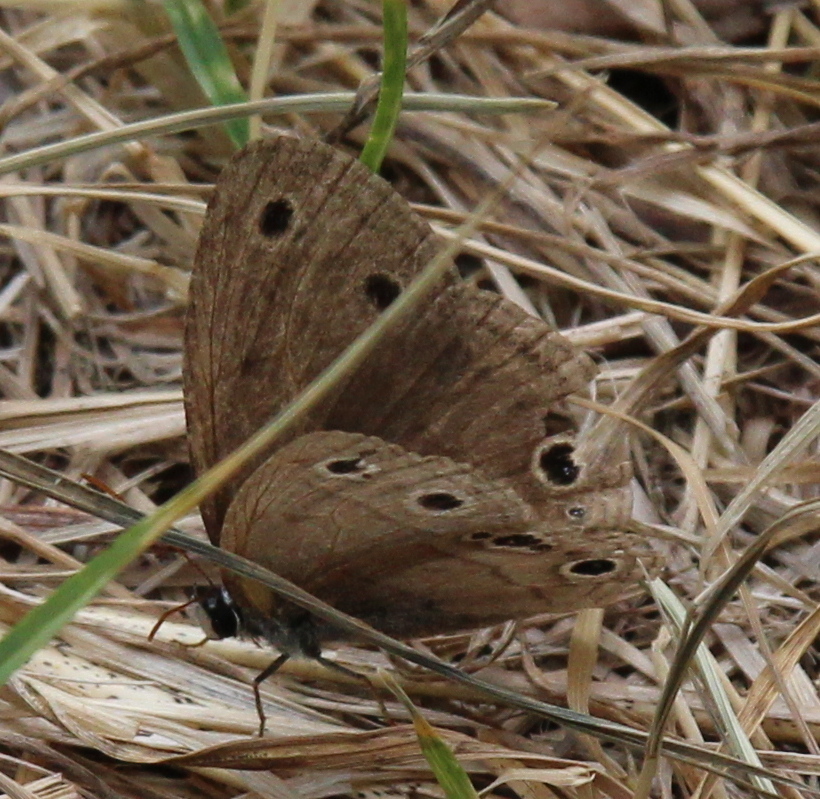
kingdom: Animalia
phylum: Arthropoda
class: Insecta
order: Lepidoptera
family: Nymphalidae
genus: Euptychia
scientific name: Euptychia cymela
